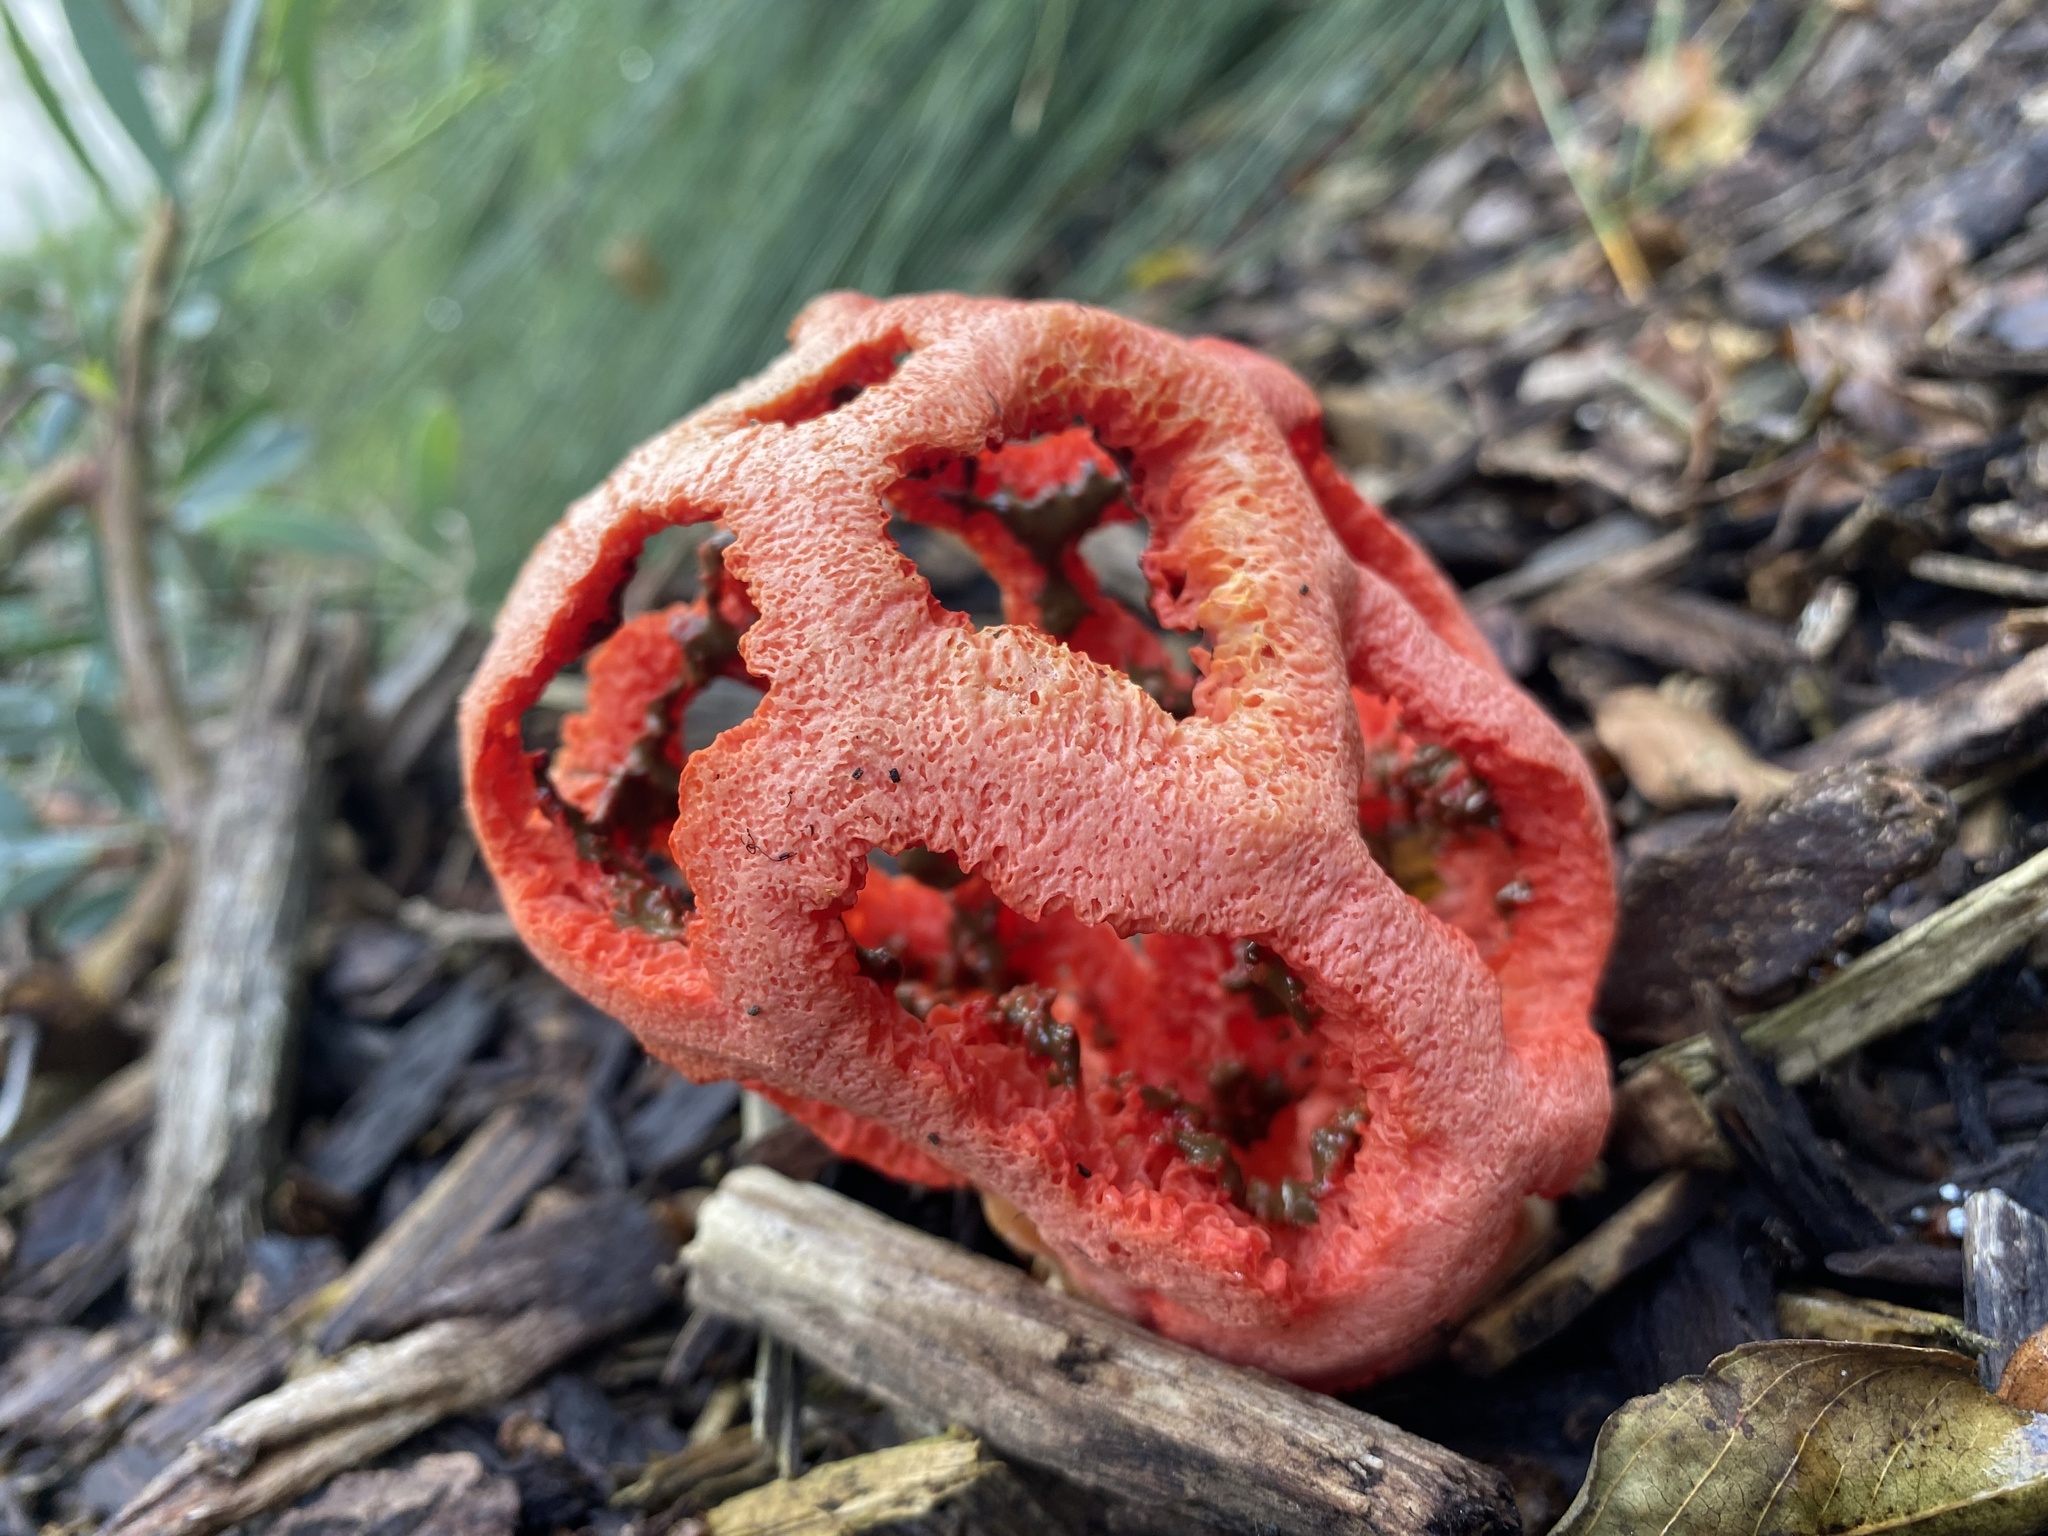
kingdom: Fungi
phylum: Basidiomycota
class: Agaricomycetes
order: Phallales
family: Phallaceae
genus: Clathrus
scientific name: Clathrus ruber
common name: Red cage
